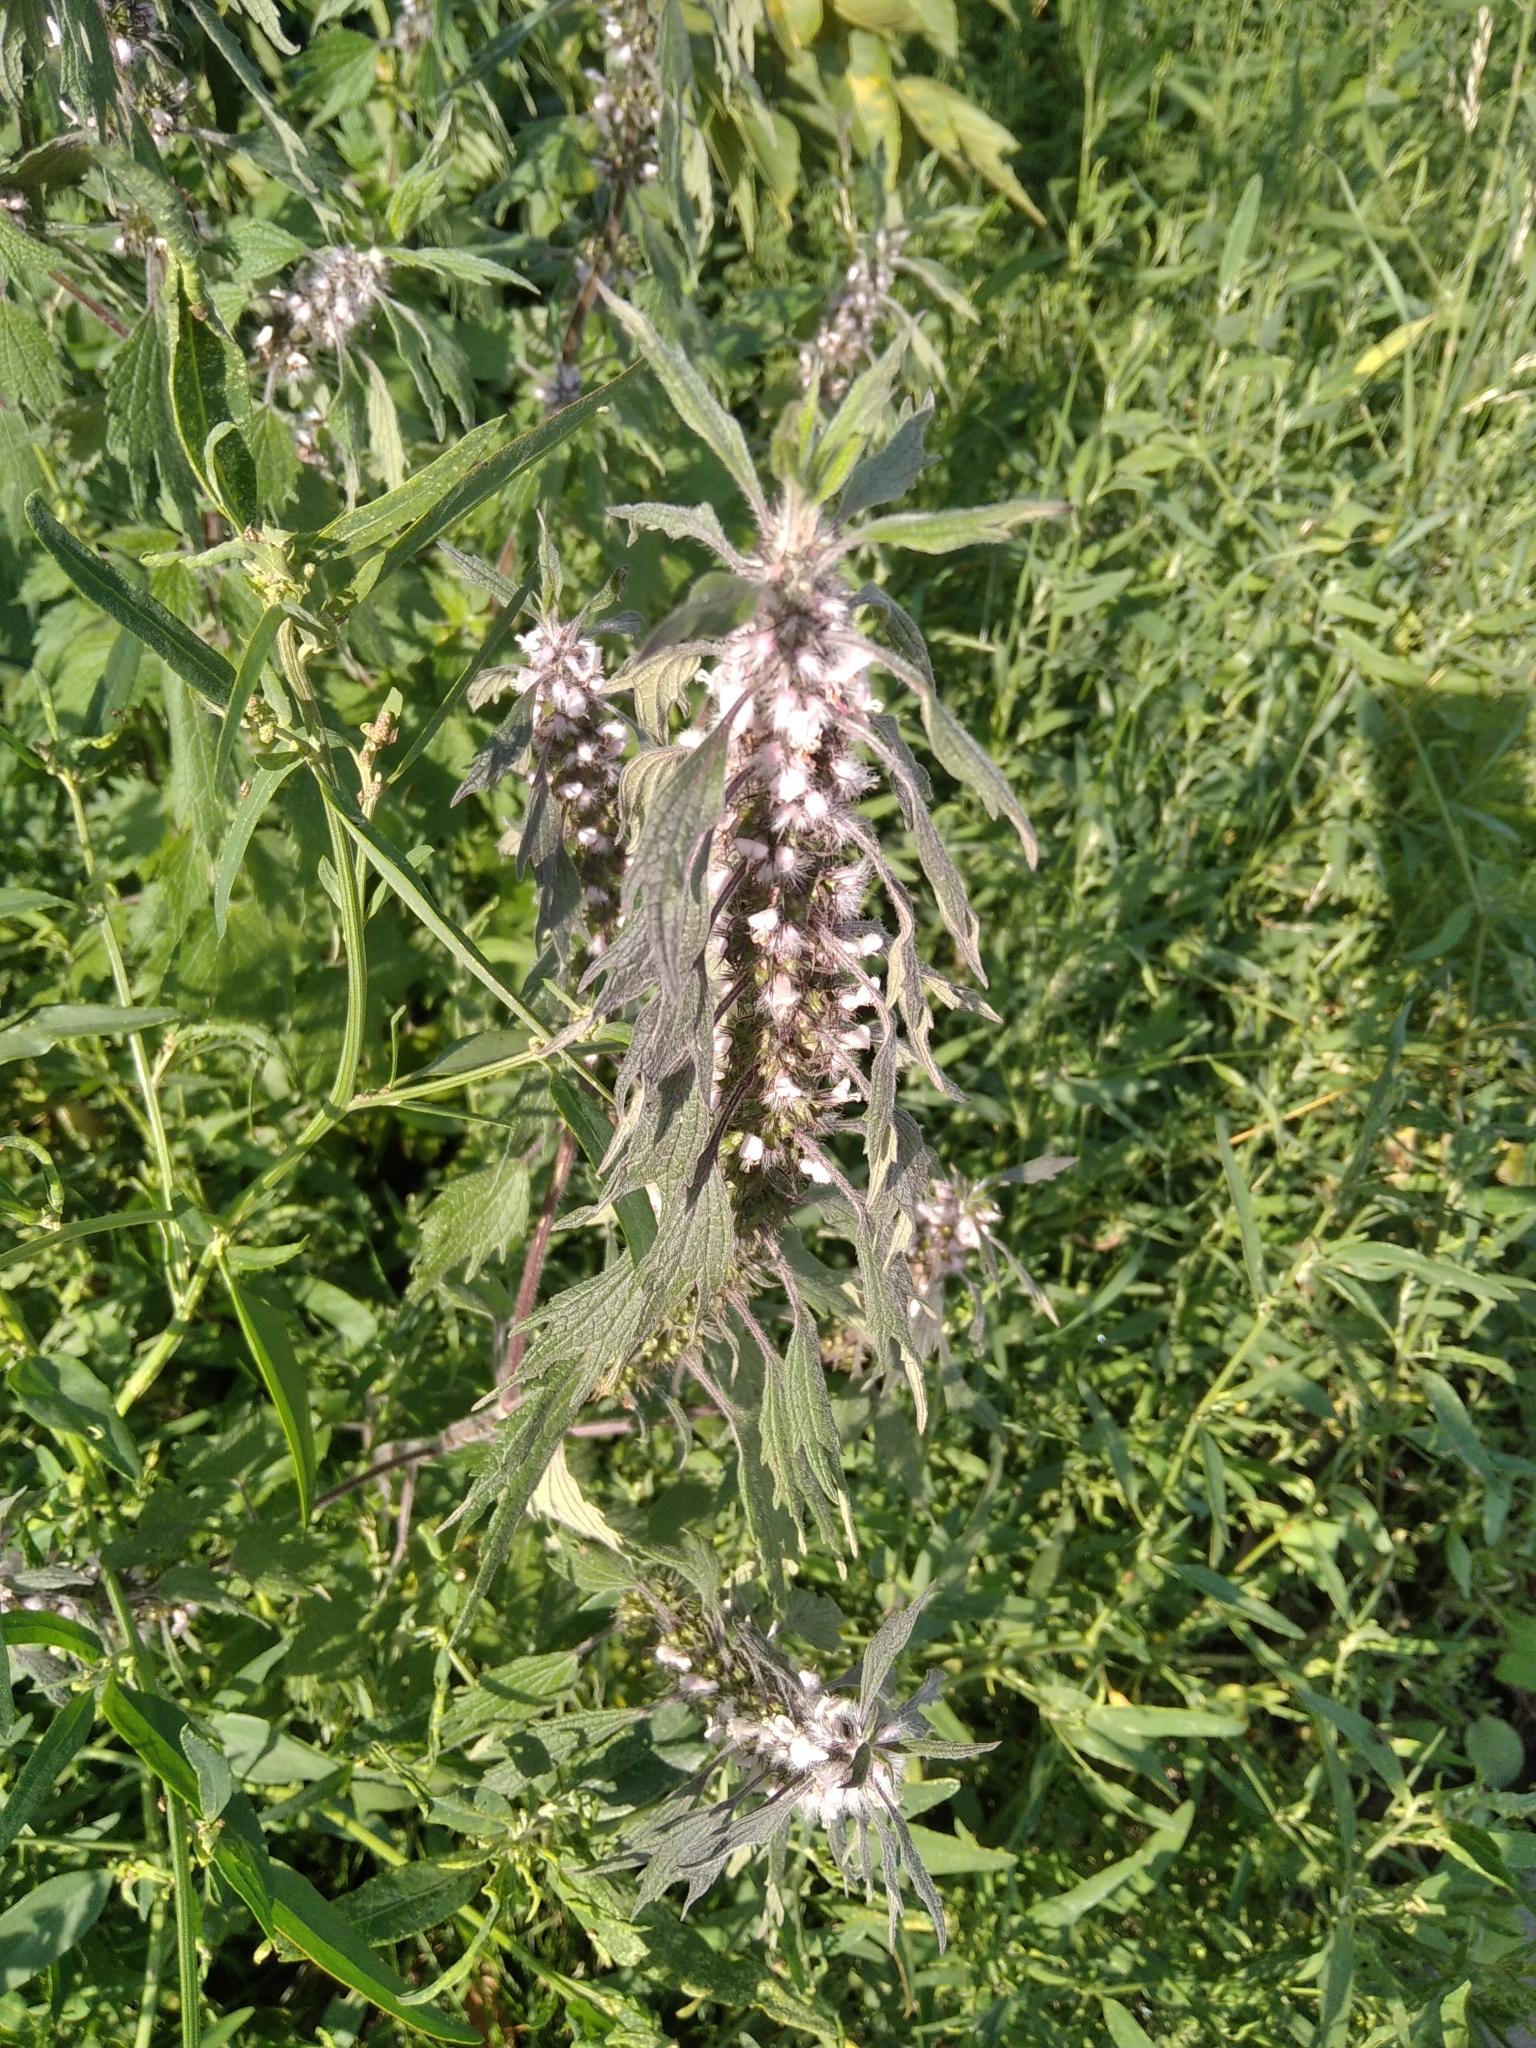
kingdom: Plantae
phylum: Tracheophyta
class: Magnoliopsida
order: Lamiales
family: Lamiaceae
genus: Leonurus
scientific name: Leonurus quinquelobatus
